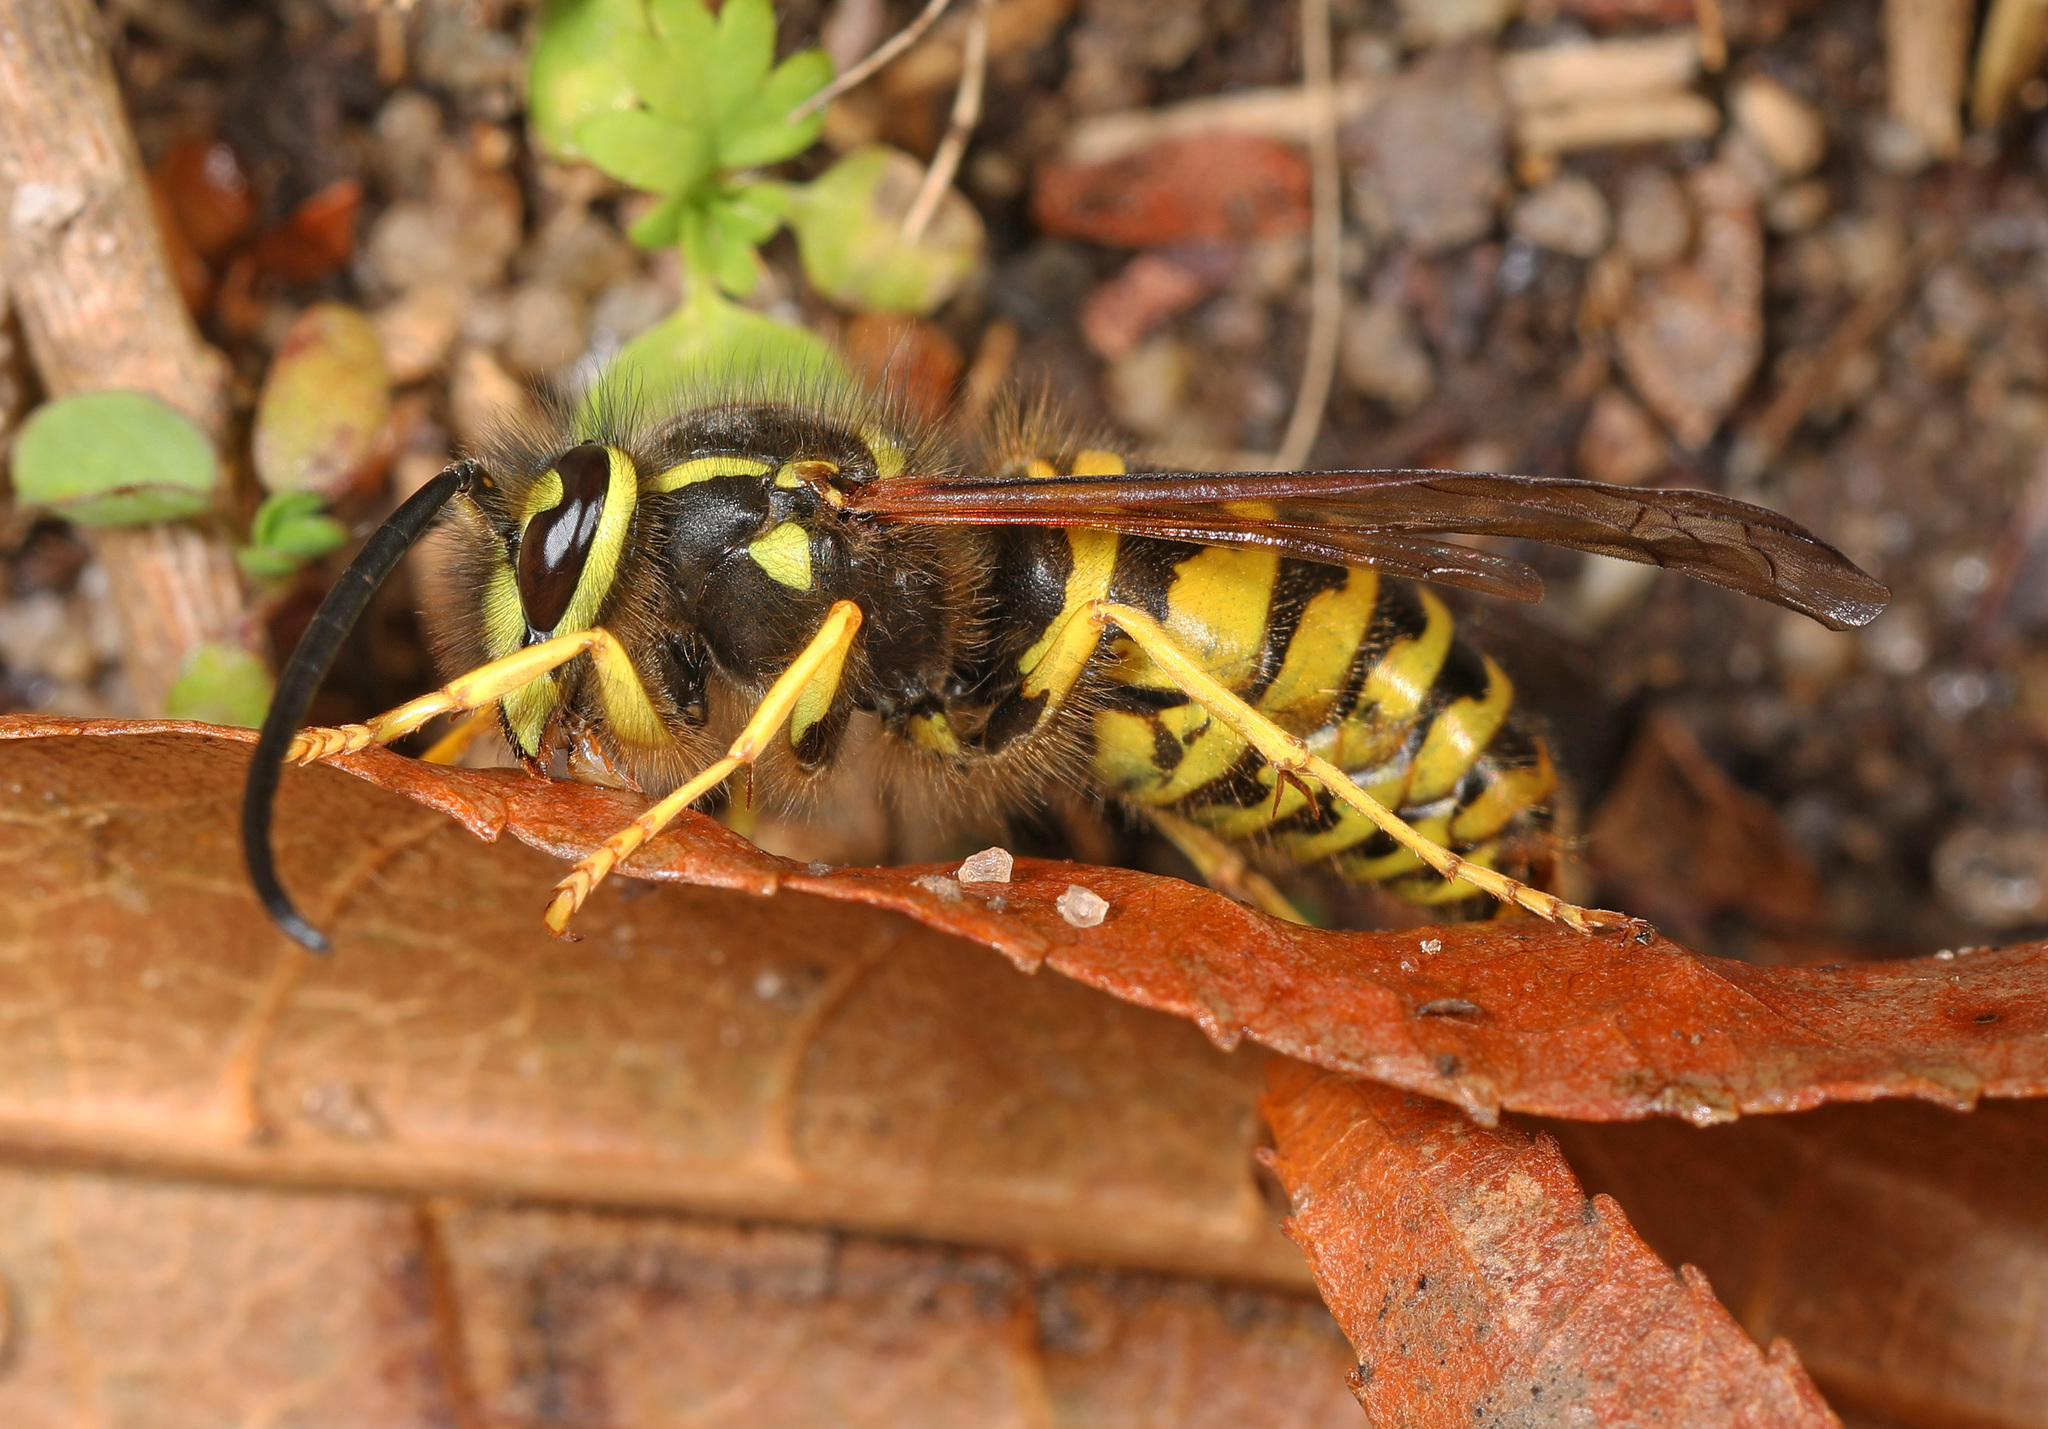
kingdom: Animalia
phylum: Arthropoda
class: Insecta
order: Hymenoptera
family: Vespidae
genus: Vespula
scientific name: Vespula maculifrons
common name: Eastern yellowjacket
